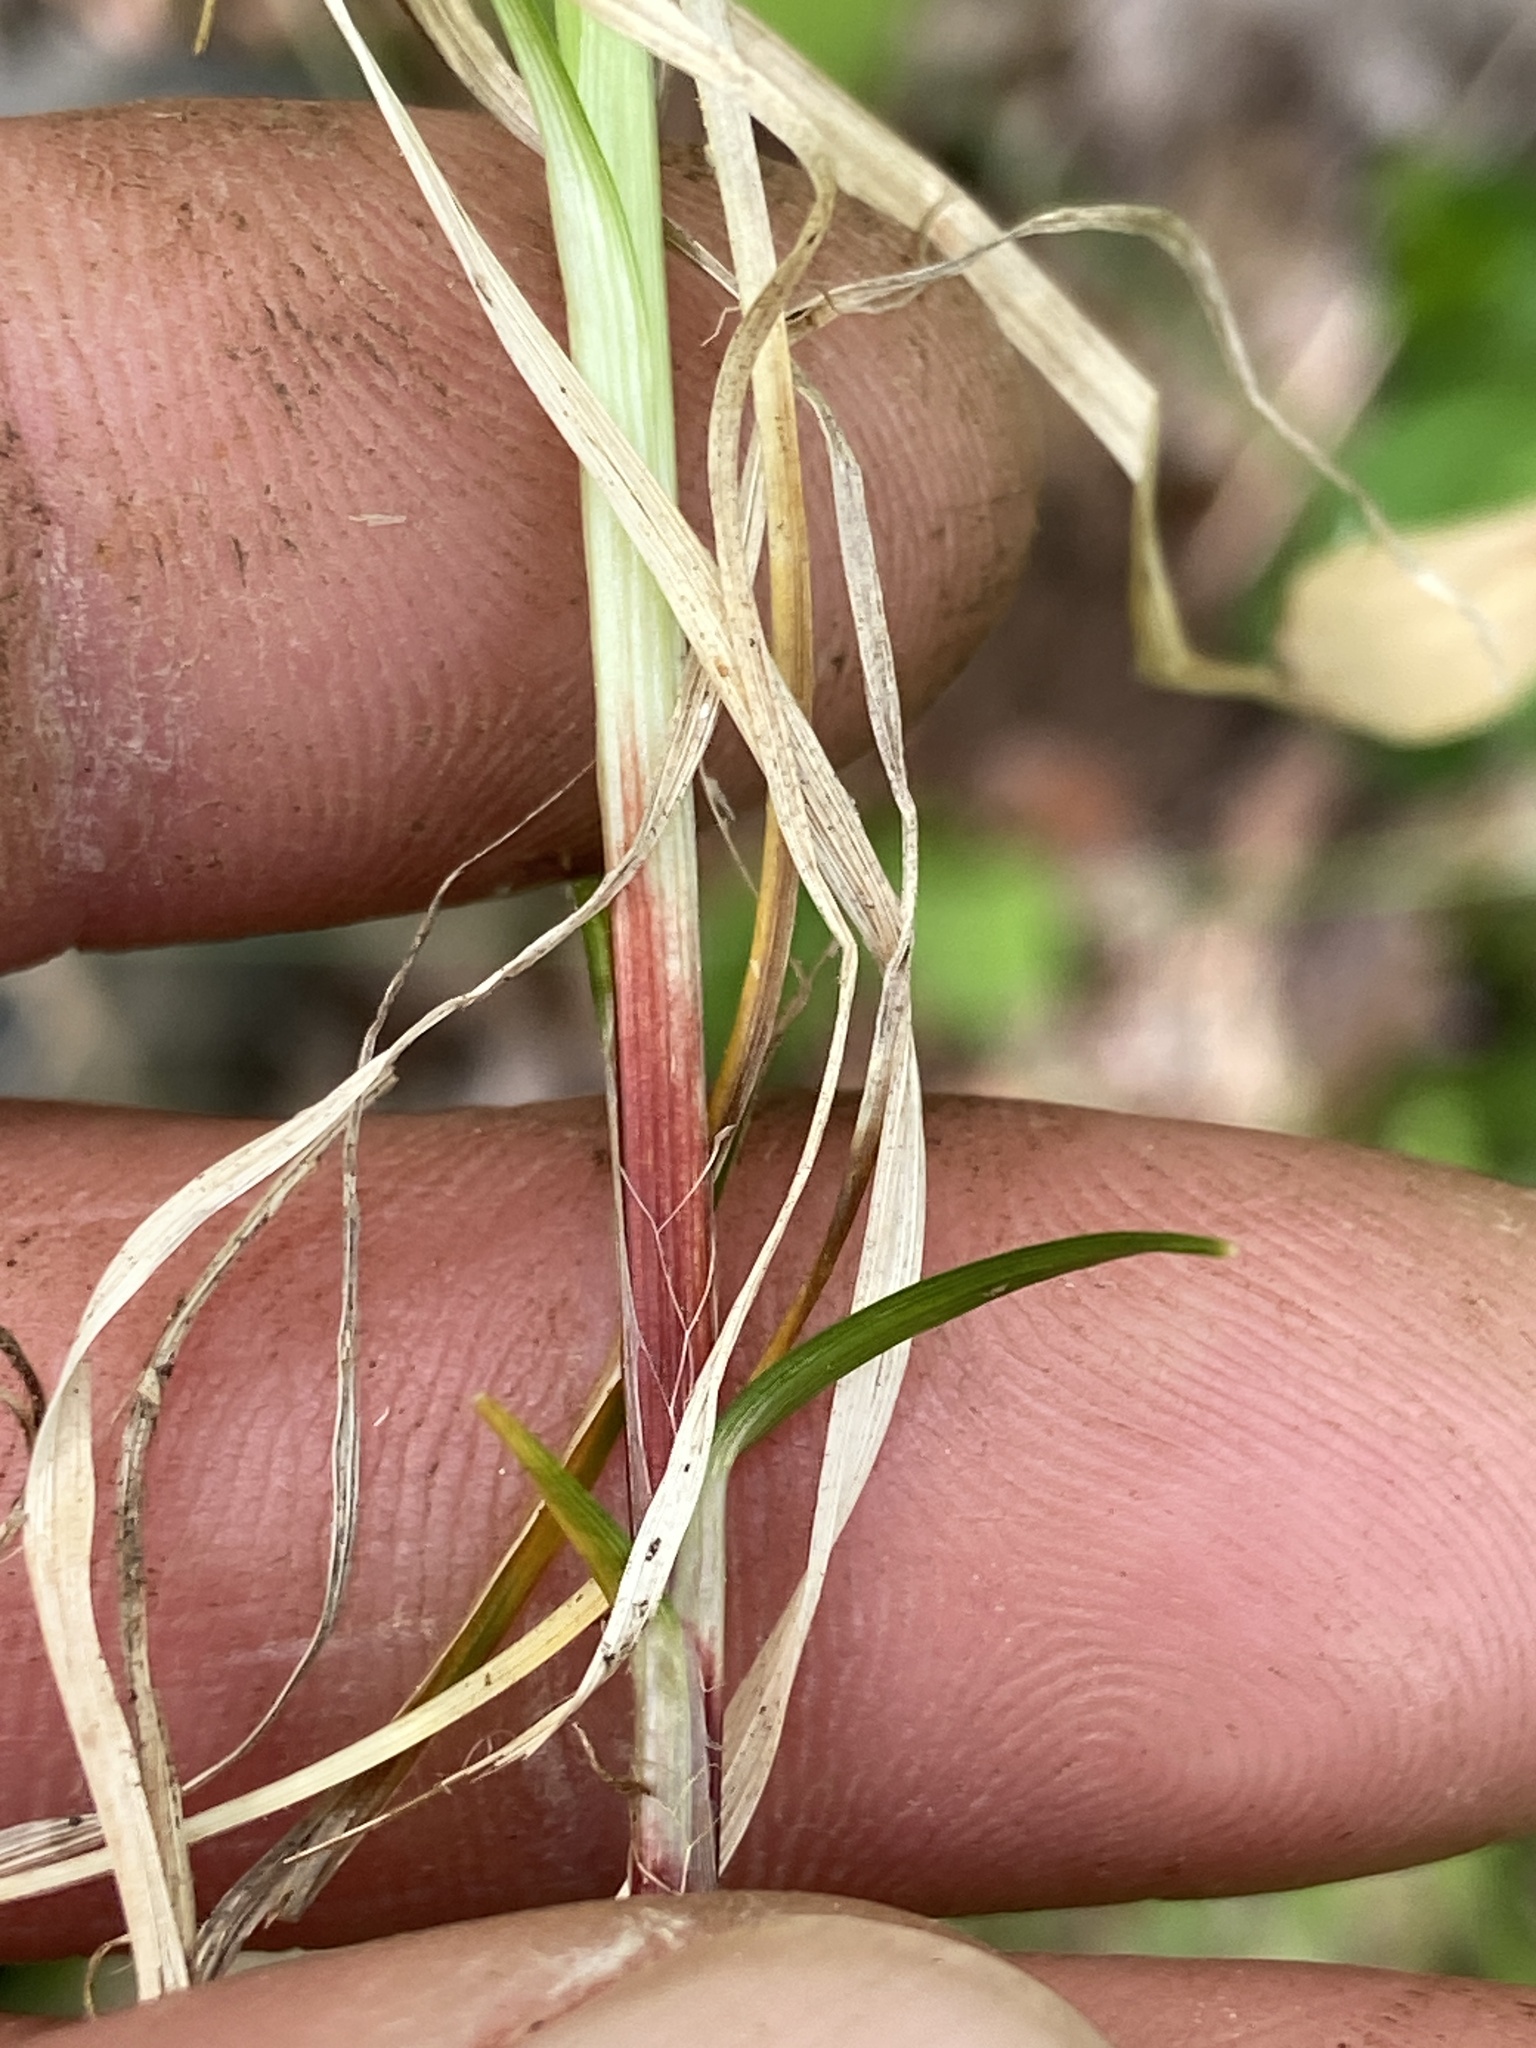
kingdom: Plantae
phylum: Tracheophyta
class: Liliopsida
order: Poales
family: Cyperaceae
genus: Carex
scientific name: Carex communis
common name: Colonial oak sedge
